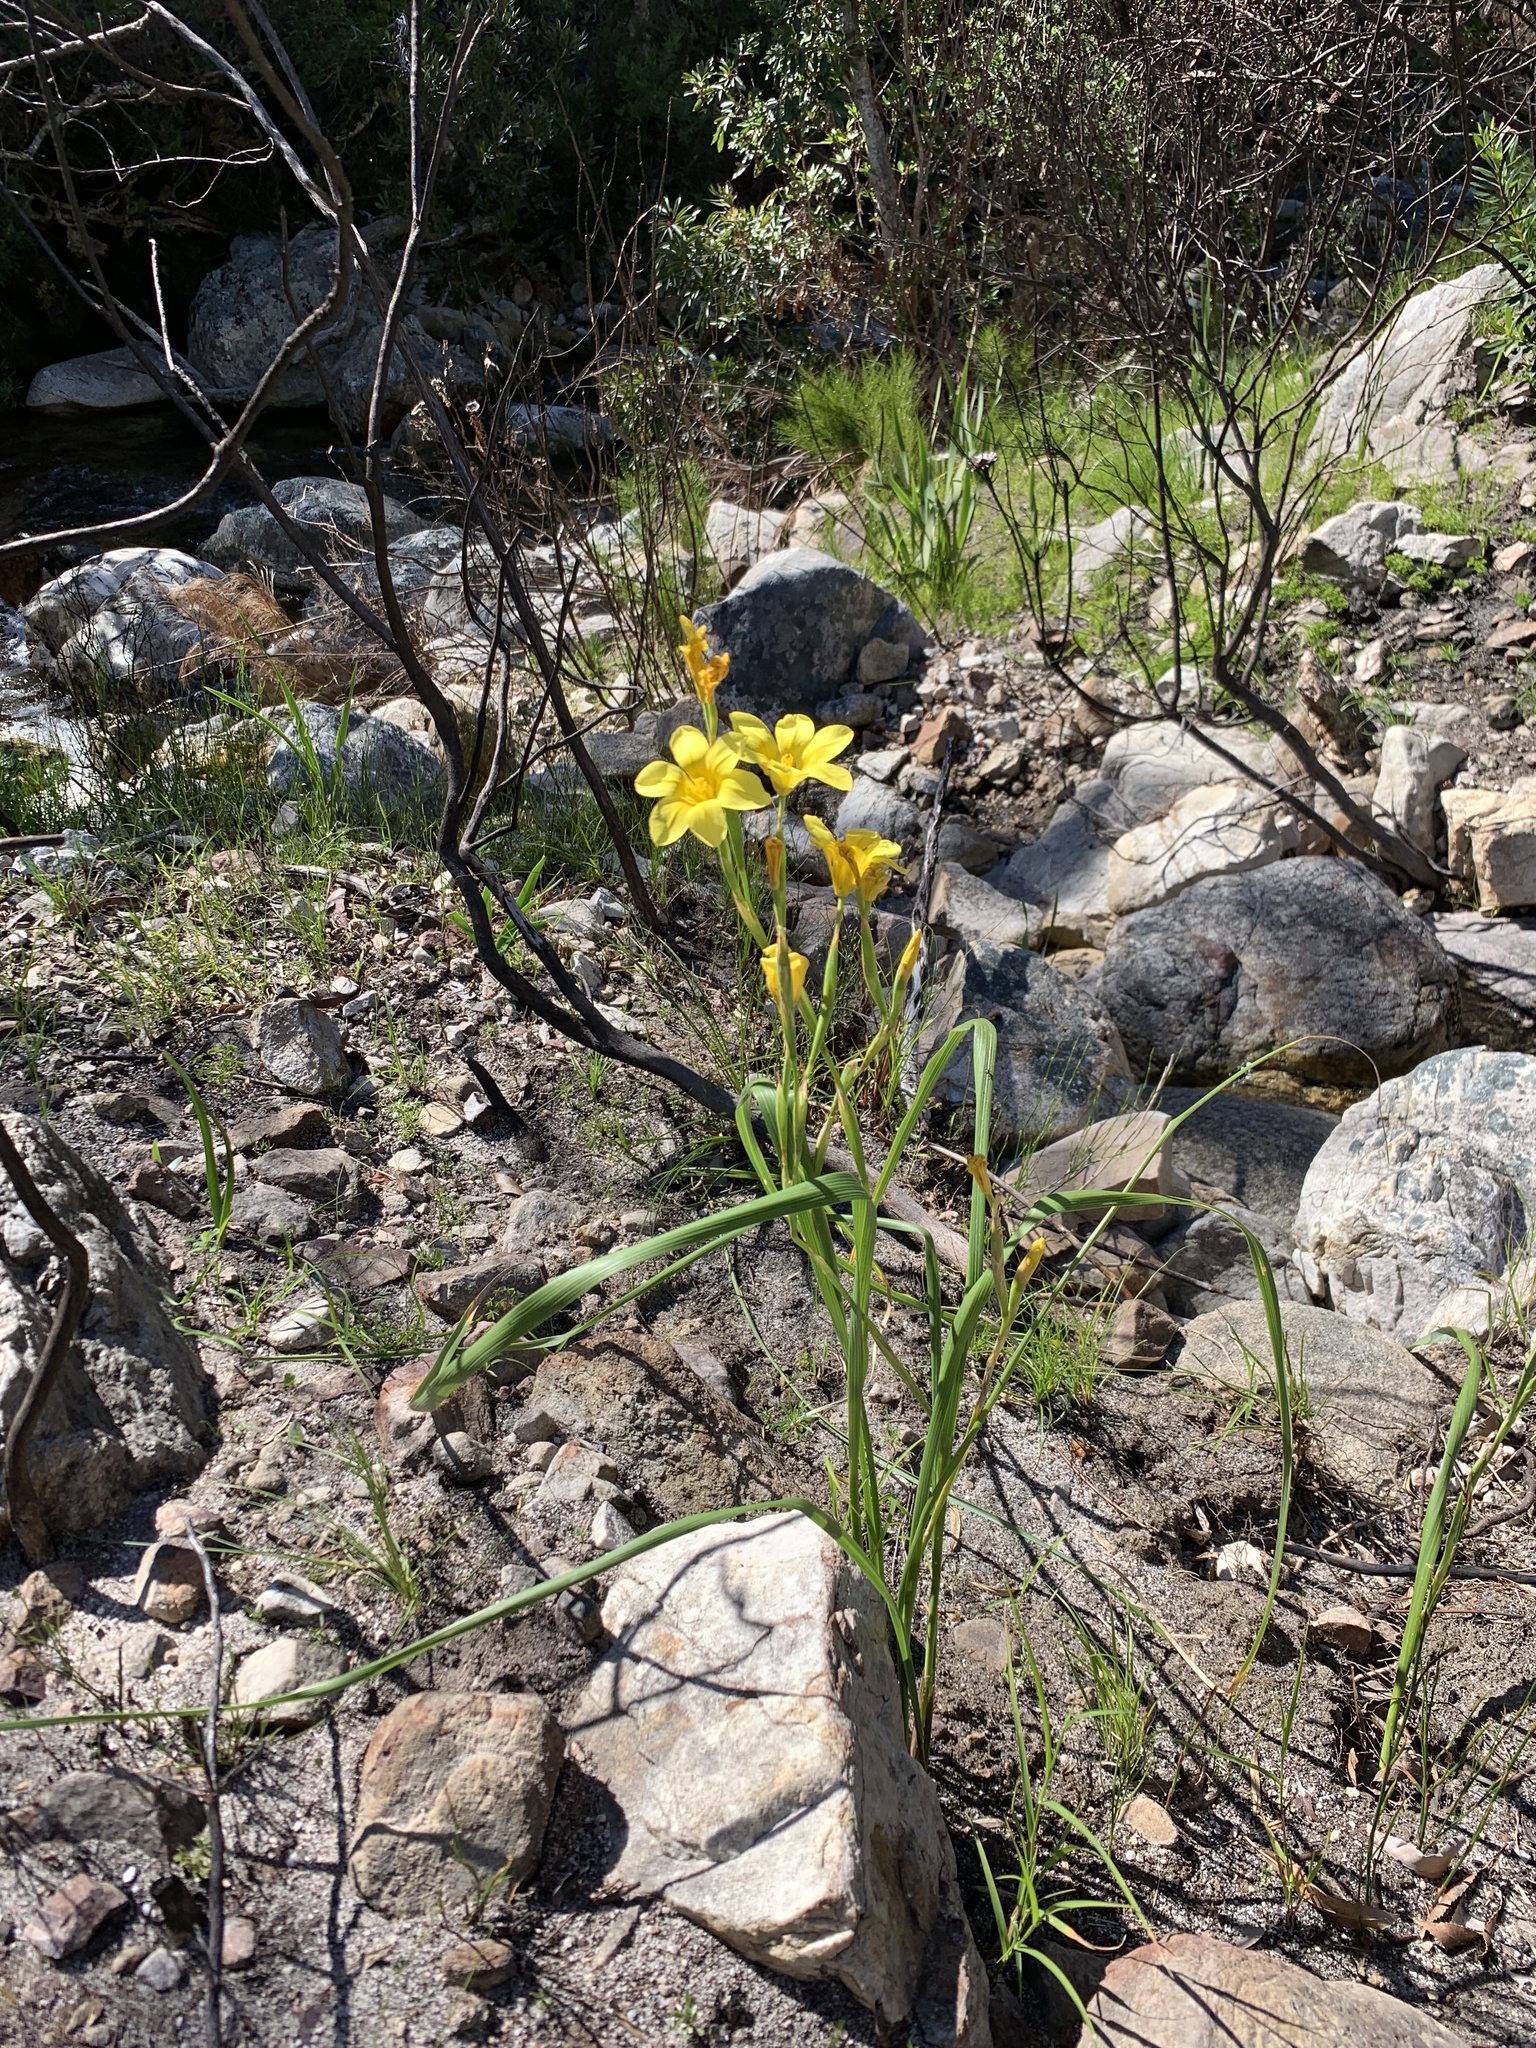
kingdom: Plantae
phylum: Tracheophyta
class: Liliopsida
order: Asparagales
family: Iridaceae
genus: Moraea
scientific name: Moraea ochroleuca
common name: Red tulp
